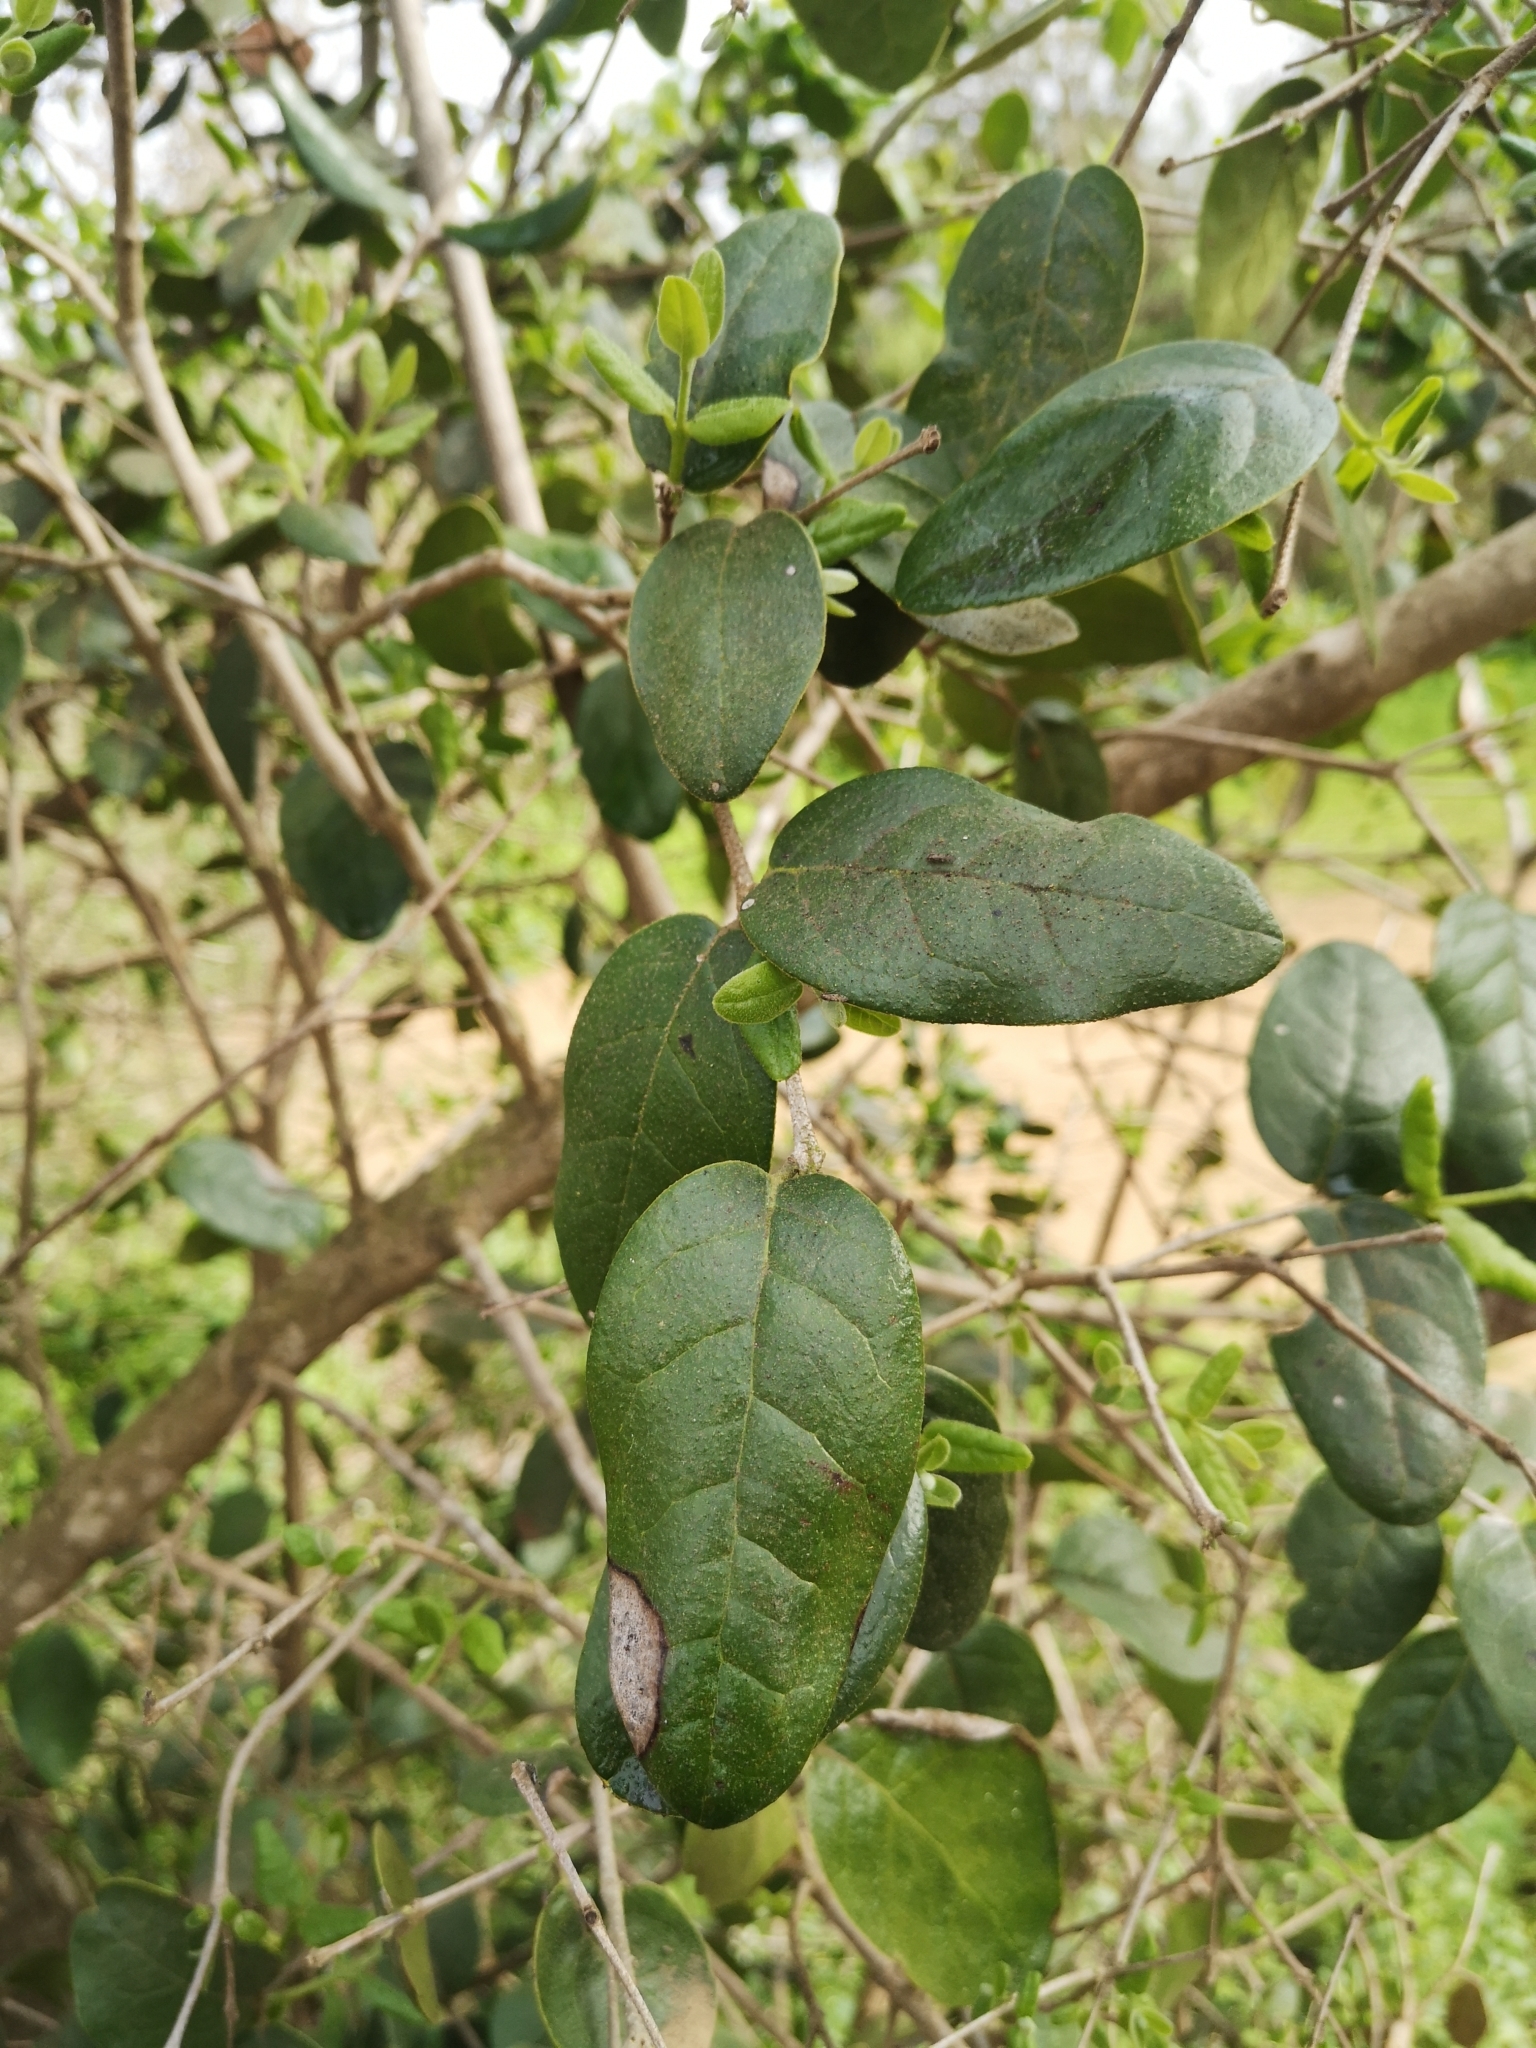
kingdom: Plantae
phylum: Tracheophyta
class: Magnoliopsida
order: Laurales
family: Monimiaceae
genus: Peumus
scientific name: Peumus boldus
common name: Boldo
